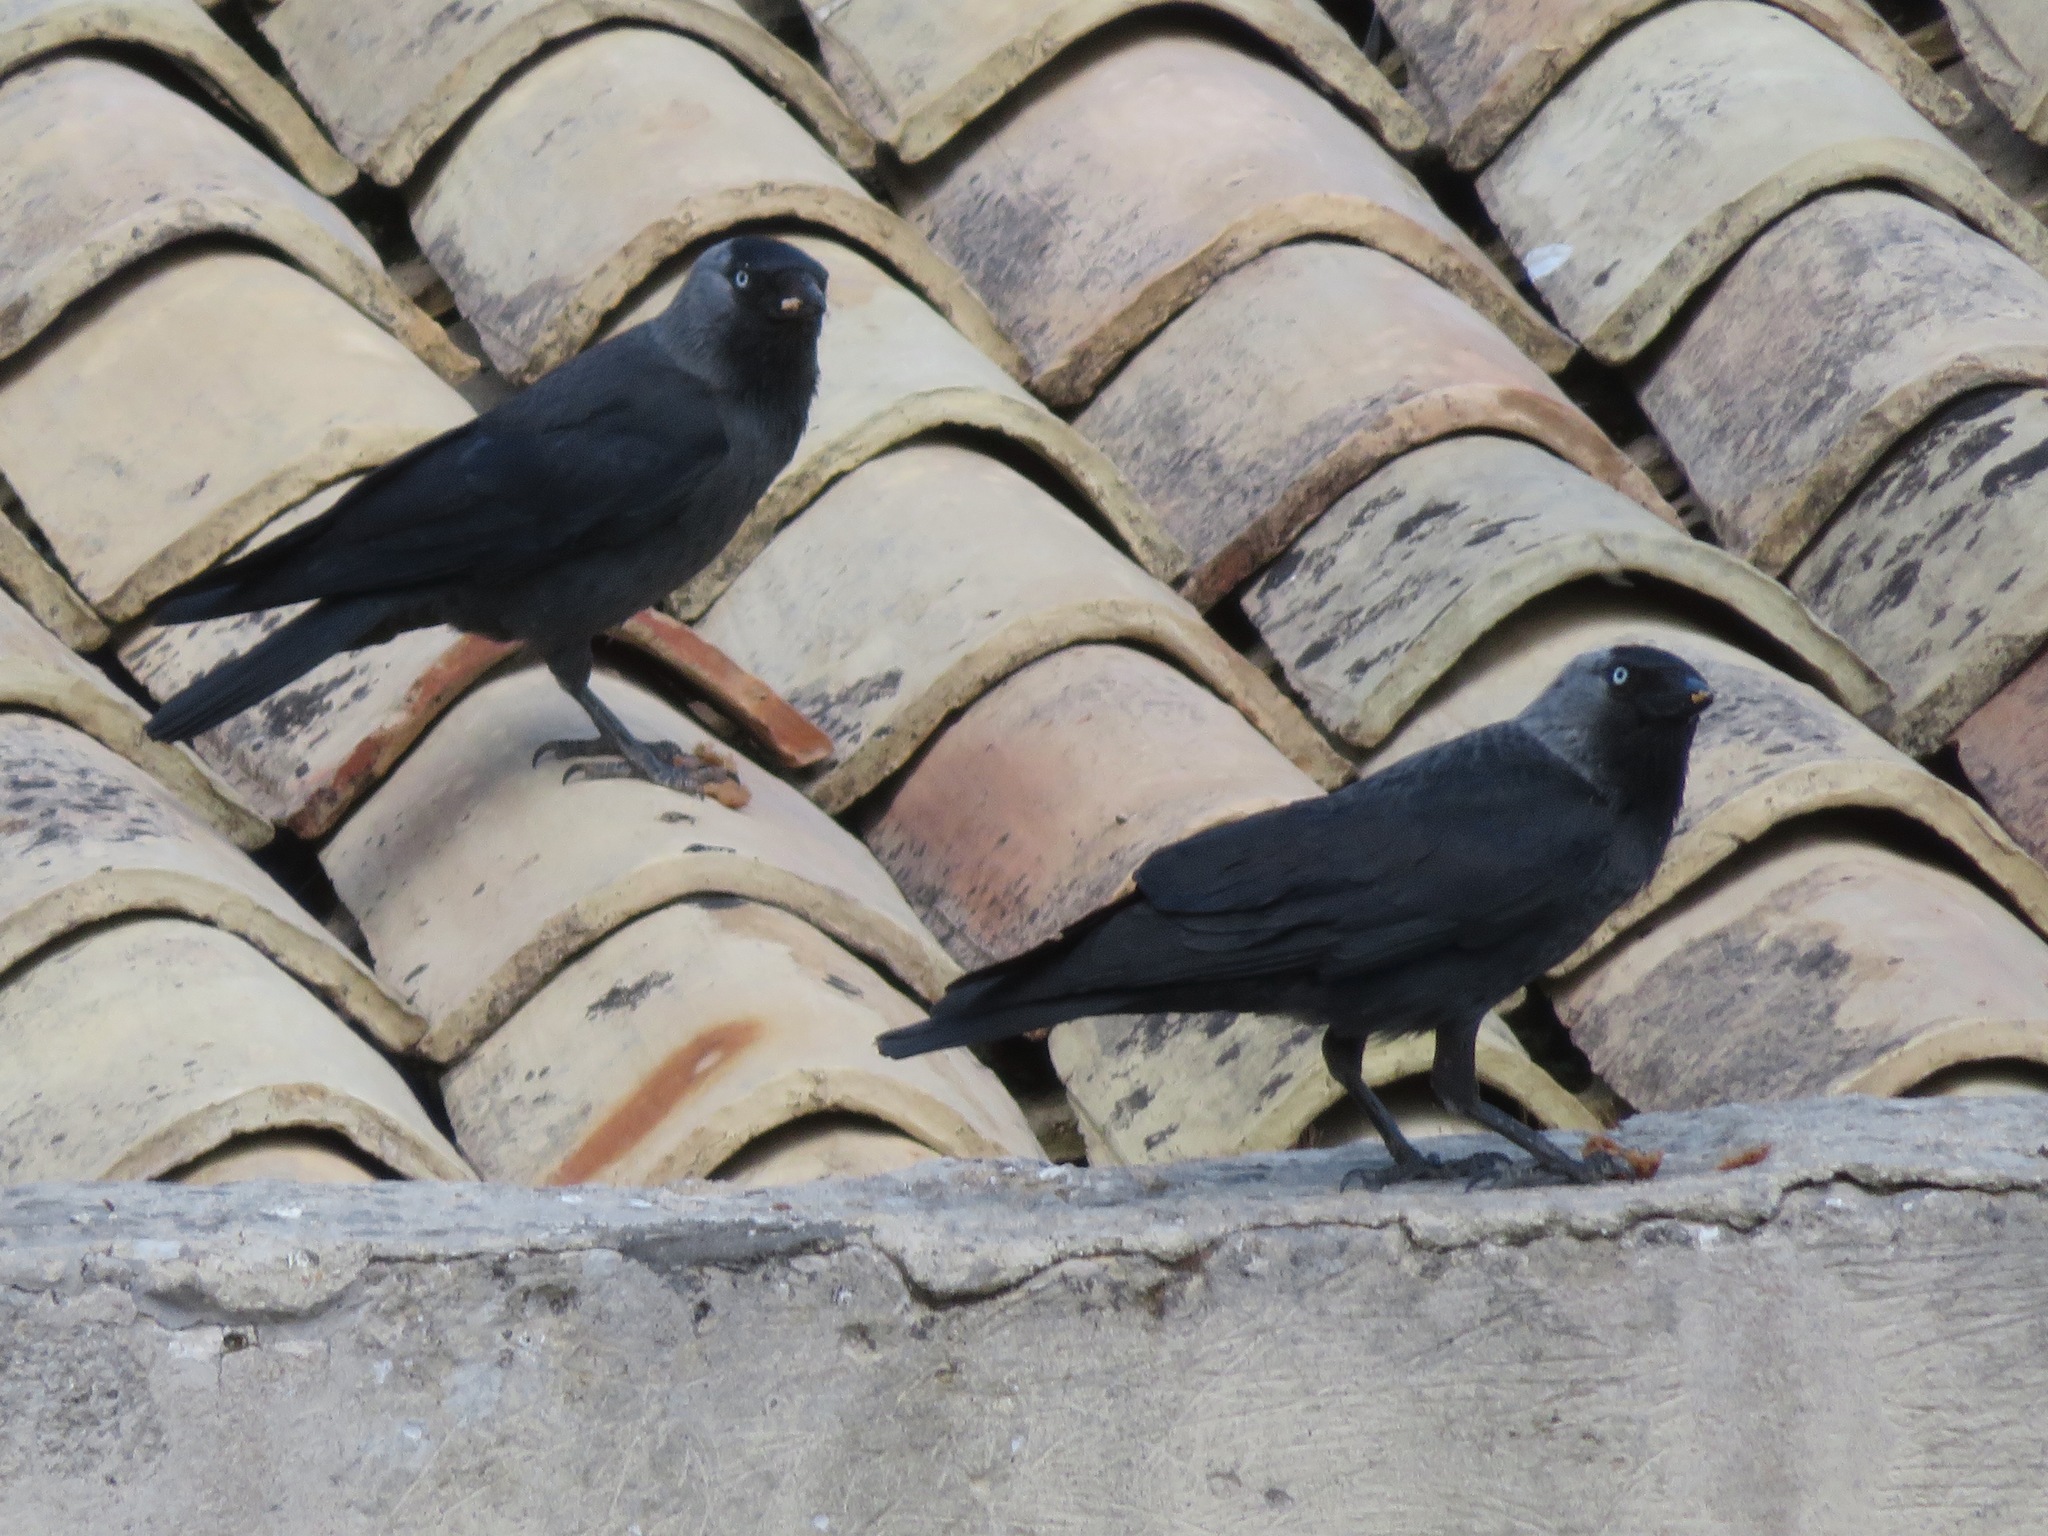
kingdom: Animalia
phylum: Chordata
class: Aves
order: Passeriformes
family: Corvidae
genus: Coloeus
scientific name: Coloeus monedula
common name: Western jackdaw
